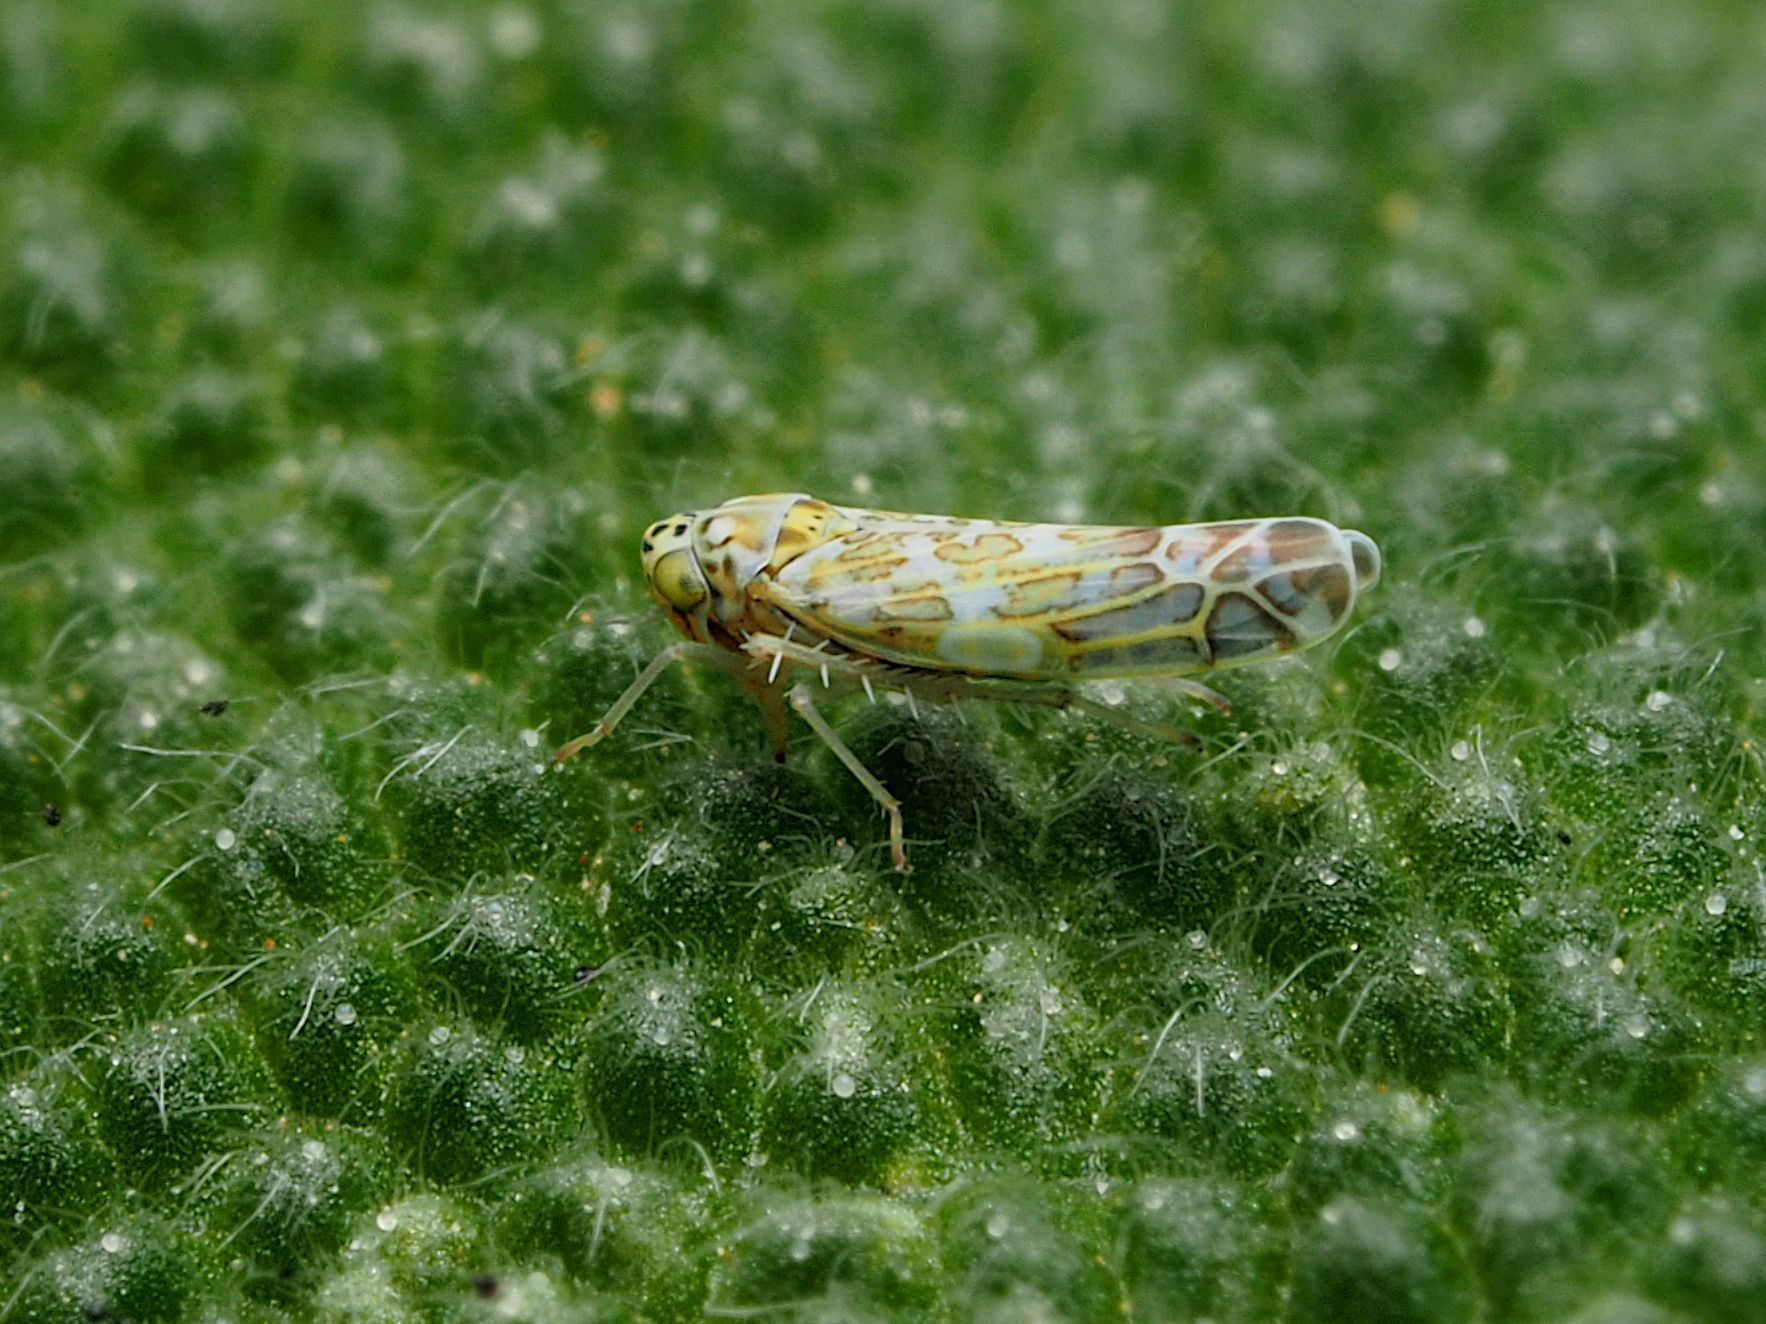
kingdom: Animalia
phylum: Arthropoda
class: Insecta
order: Hemiptera
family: Cicadellidae
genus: Eupteryx
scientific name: Eupteryx decemnotata
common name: Ligurian leafhopper
